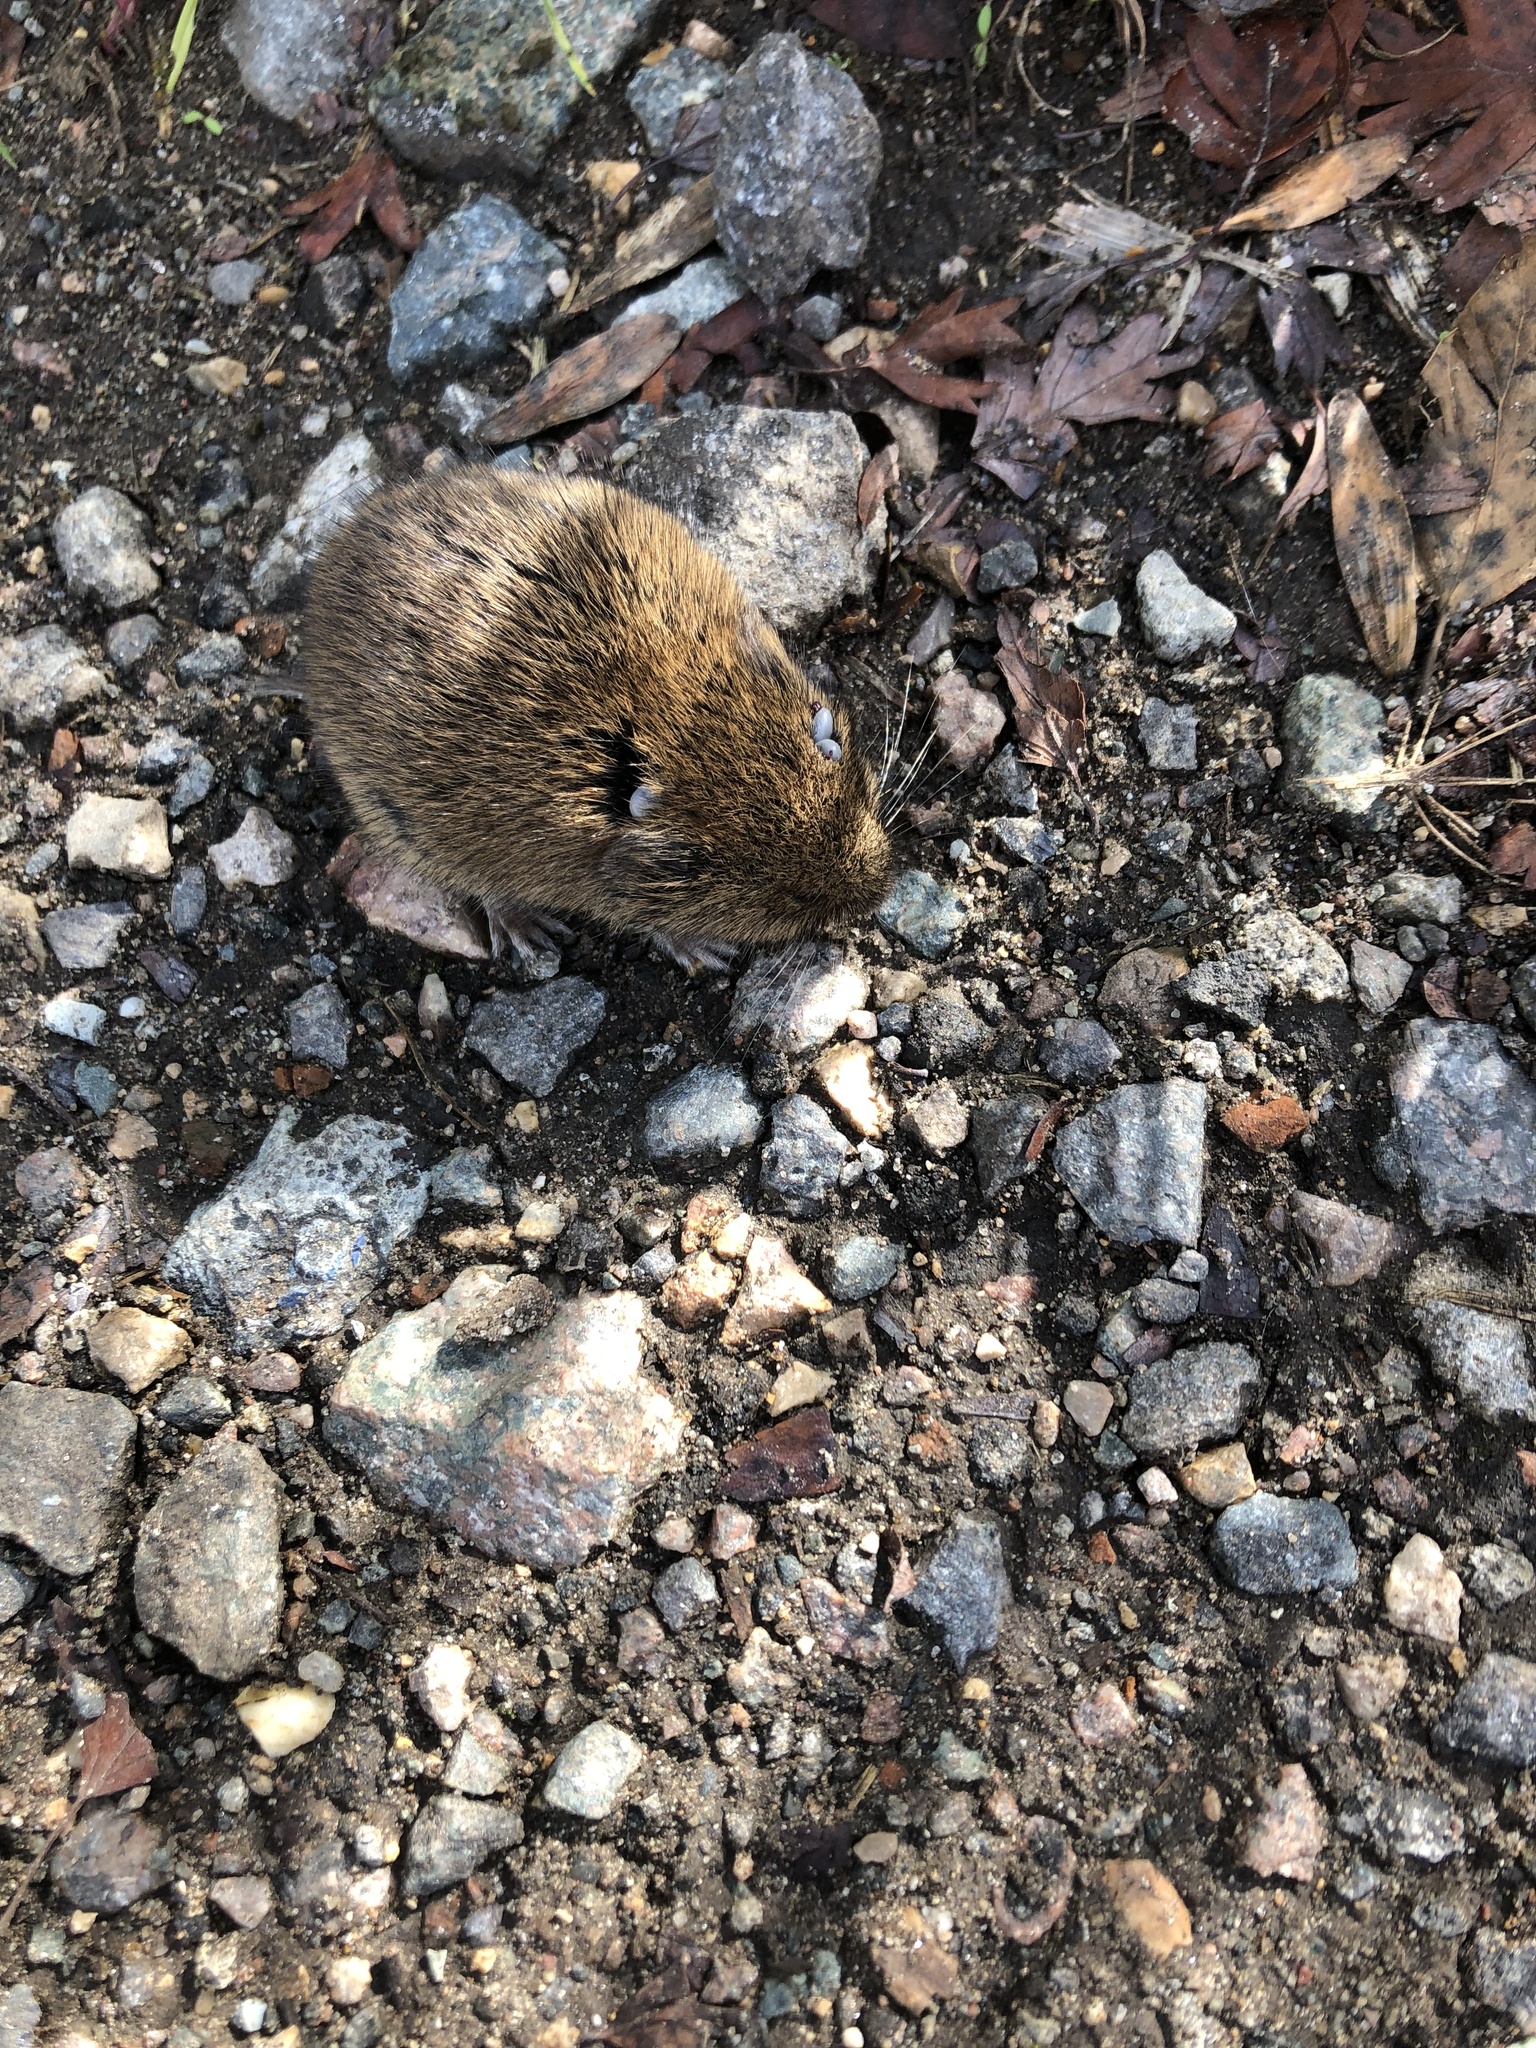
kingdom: Animalia
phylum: Chordata
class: Mammalia
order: Rodentia
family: Cricetidae
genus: Microtus
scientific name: Microtus agrestis
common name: Field vole
